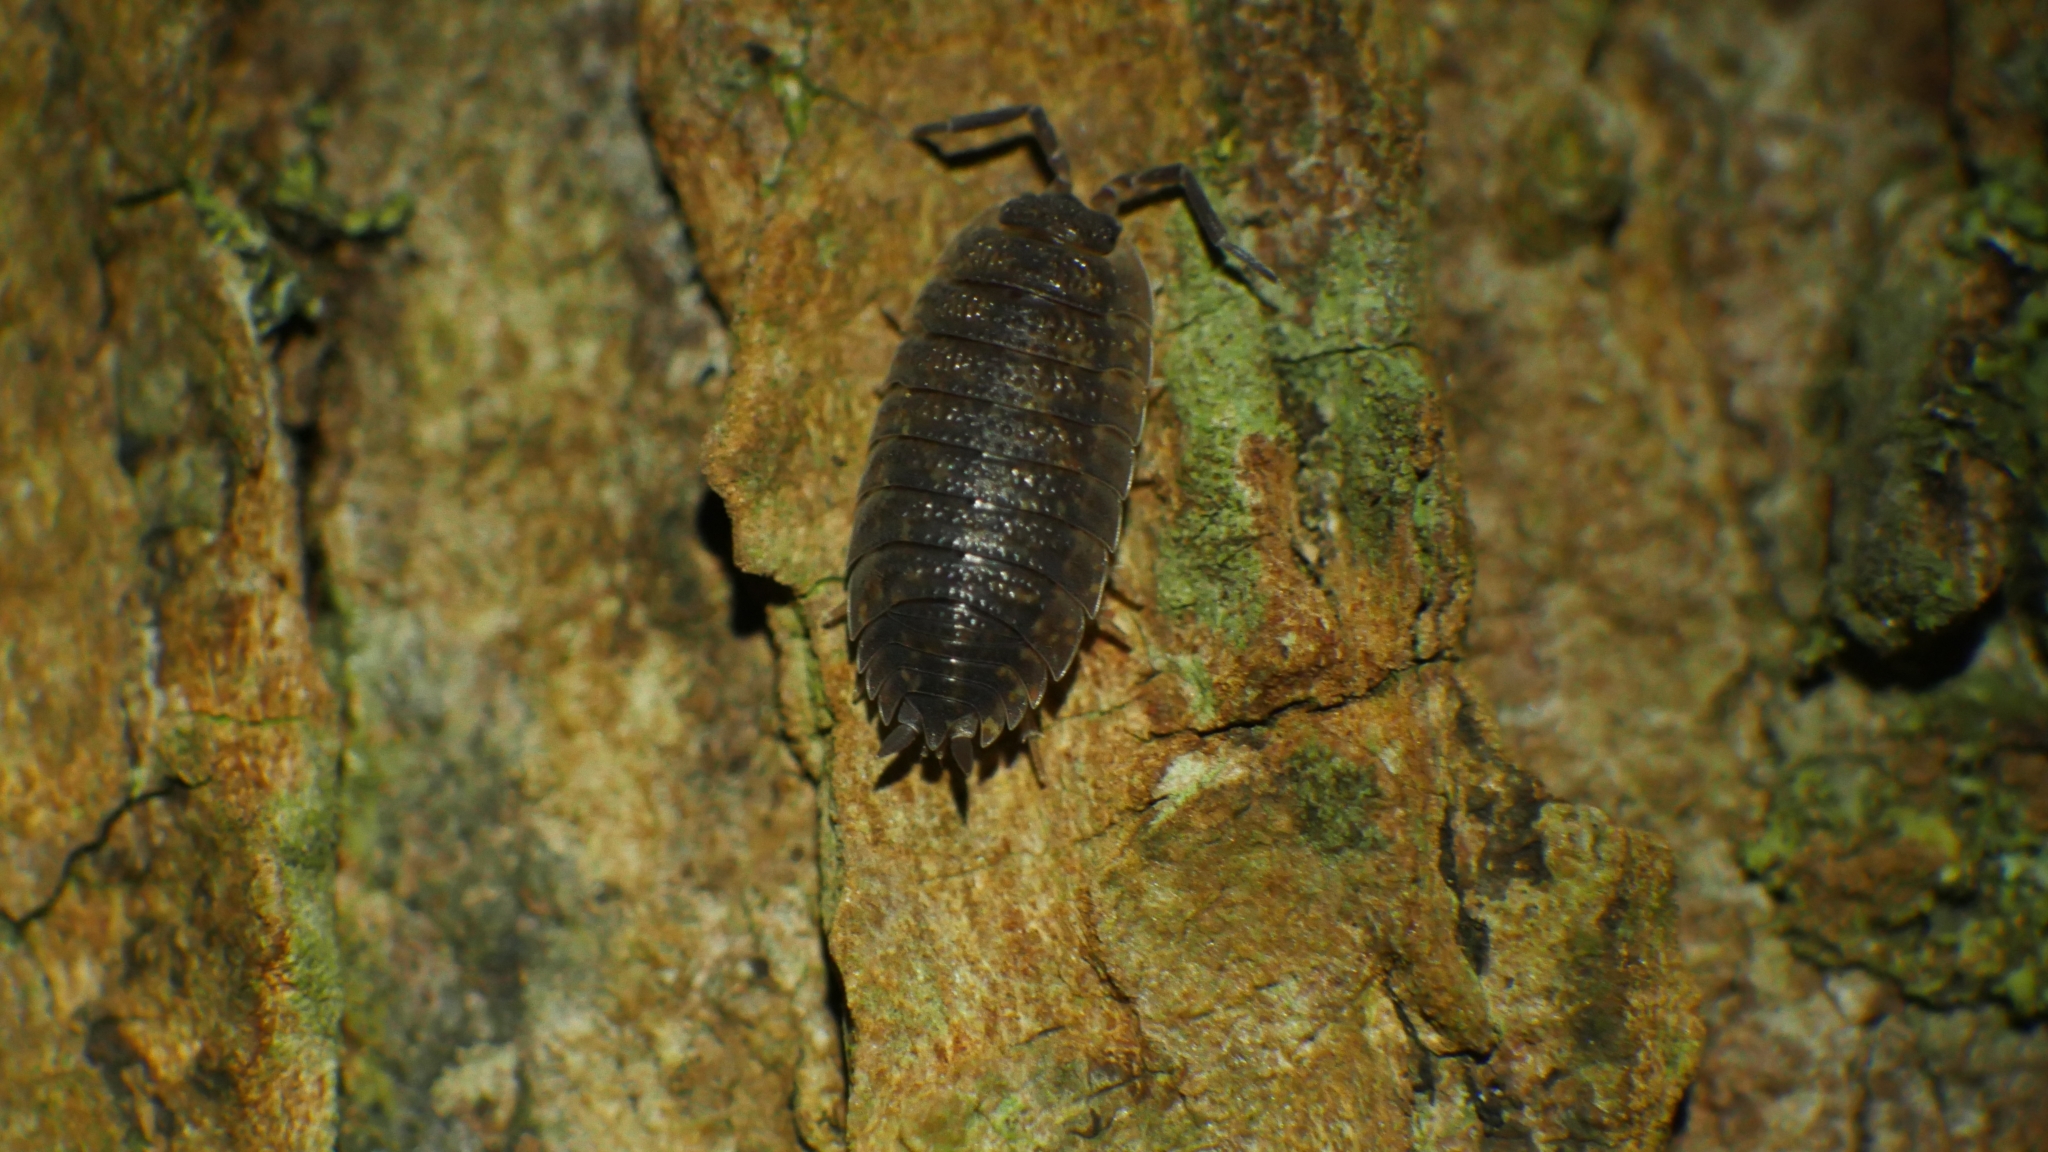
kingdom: Animalia
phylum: Arthropoda
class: Malacostraca
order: Isopoda
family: Porcellionidae
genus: Porcellio
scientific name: Porcellio scaber
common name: Common rough woodlouse
